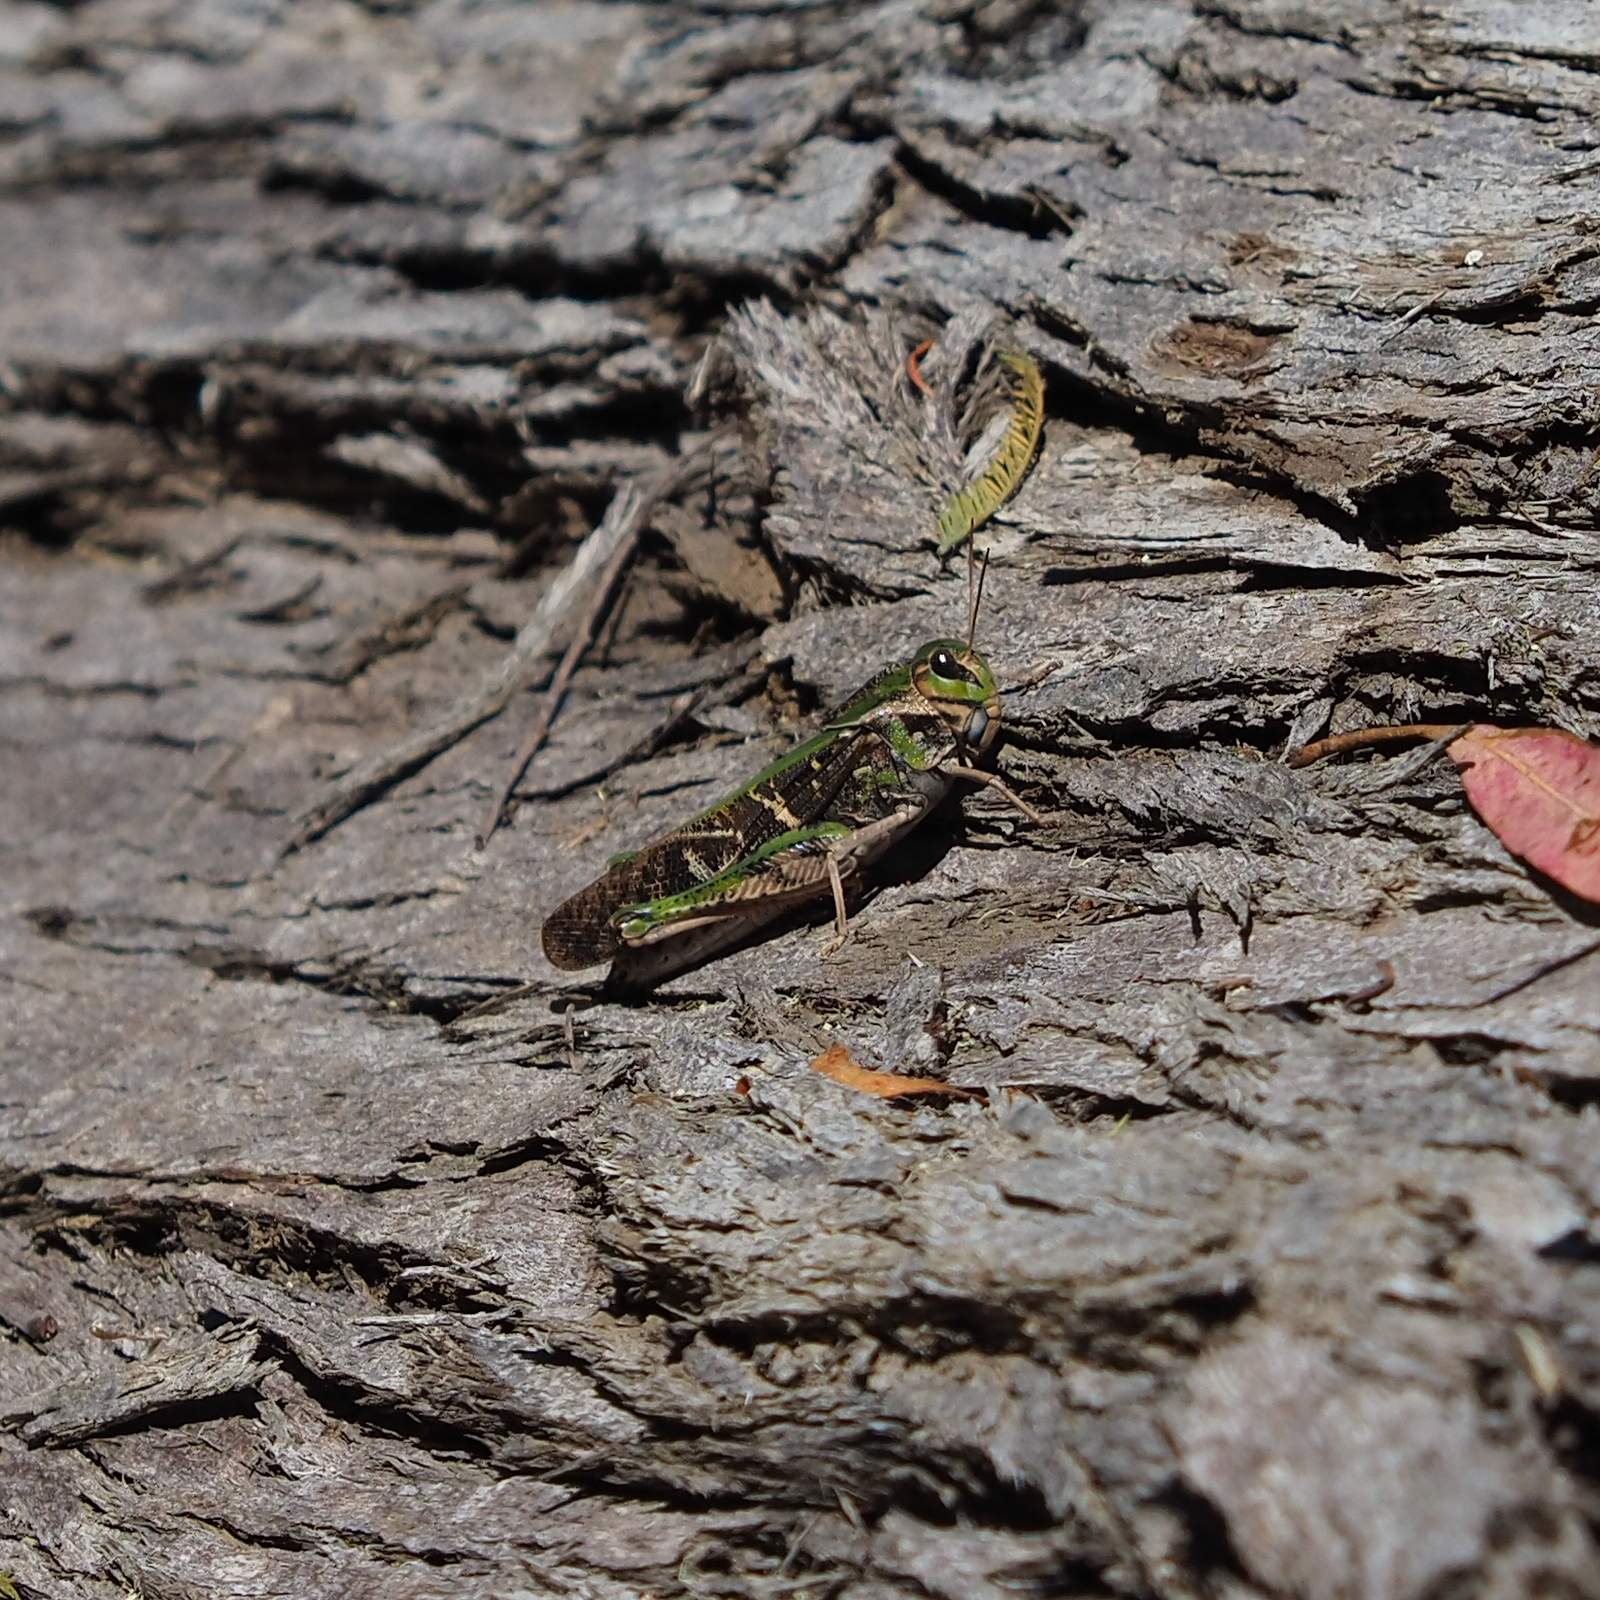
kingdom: Animalia
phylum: Arthropoda
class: Insecta
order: Orthoptera
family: Acrididae
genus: Gastrimargus
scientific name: Gastrimargus musicus
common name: Yellow-winged locust
